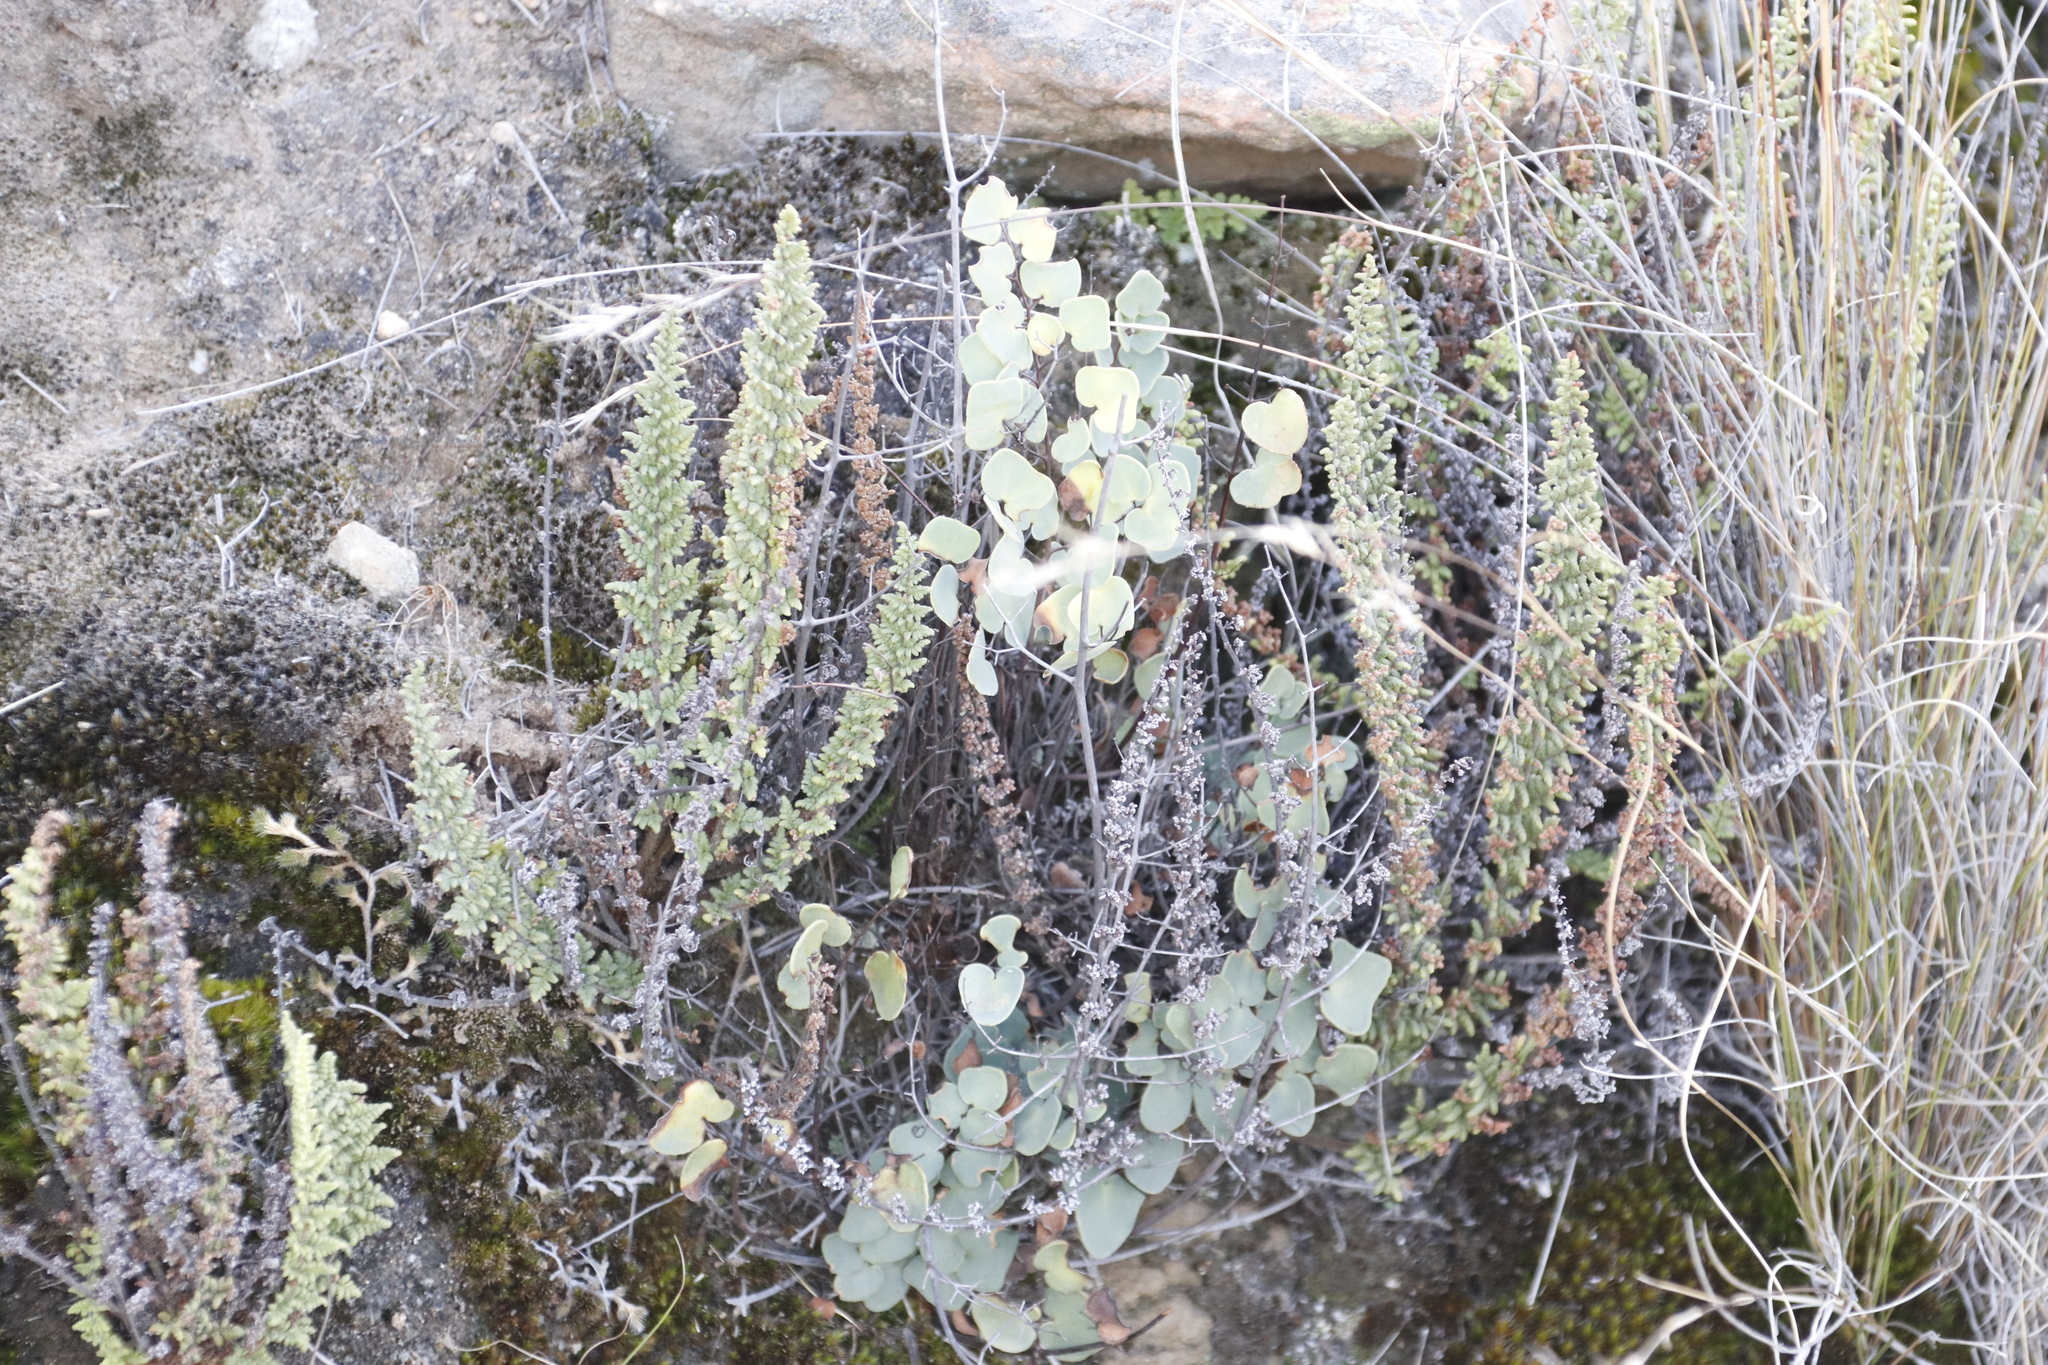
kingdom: Plantae
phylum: Tracheophyta
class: Polypodiopsida
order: Polypodiales
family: Pteridaceae
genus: Pellaea
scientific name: Pellaea calomelanos
